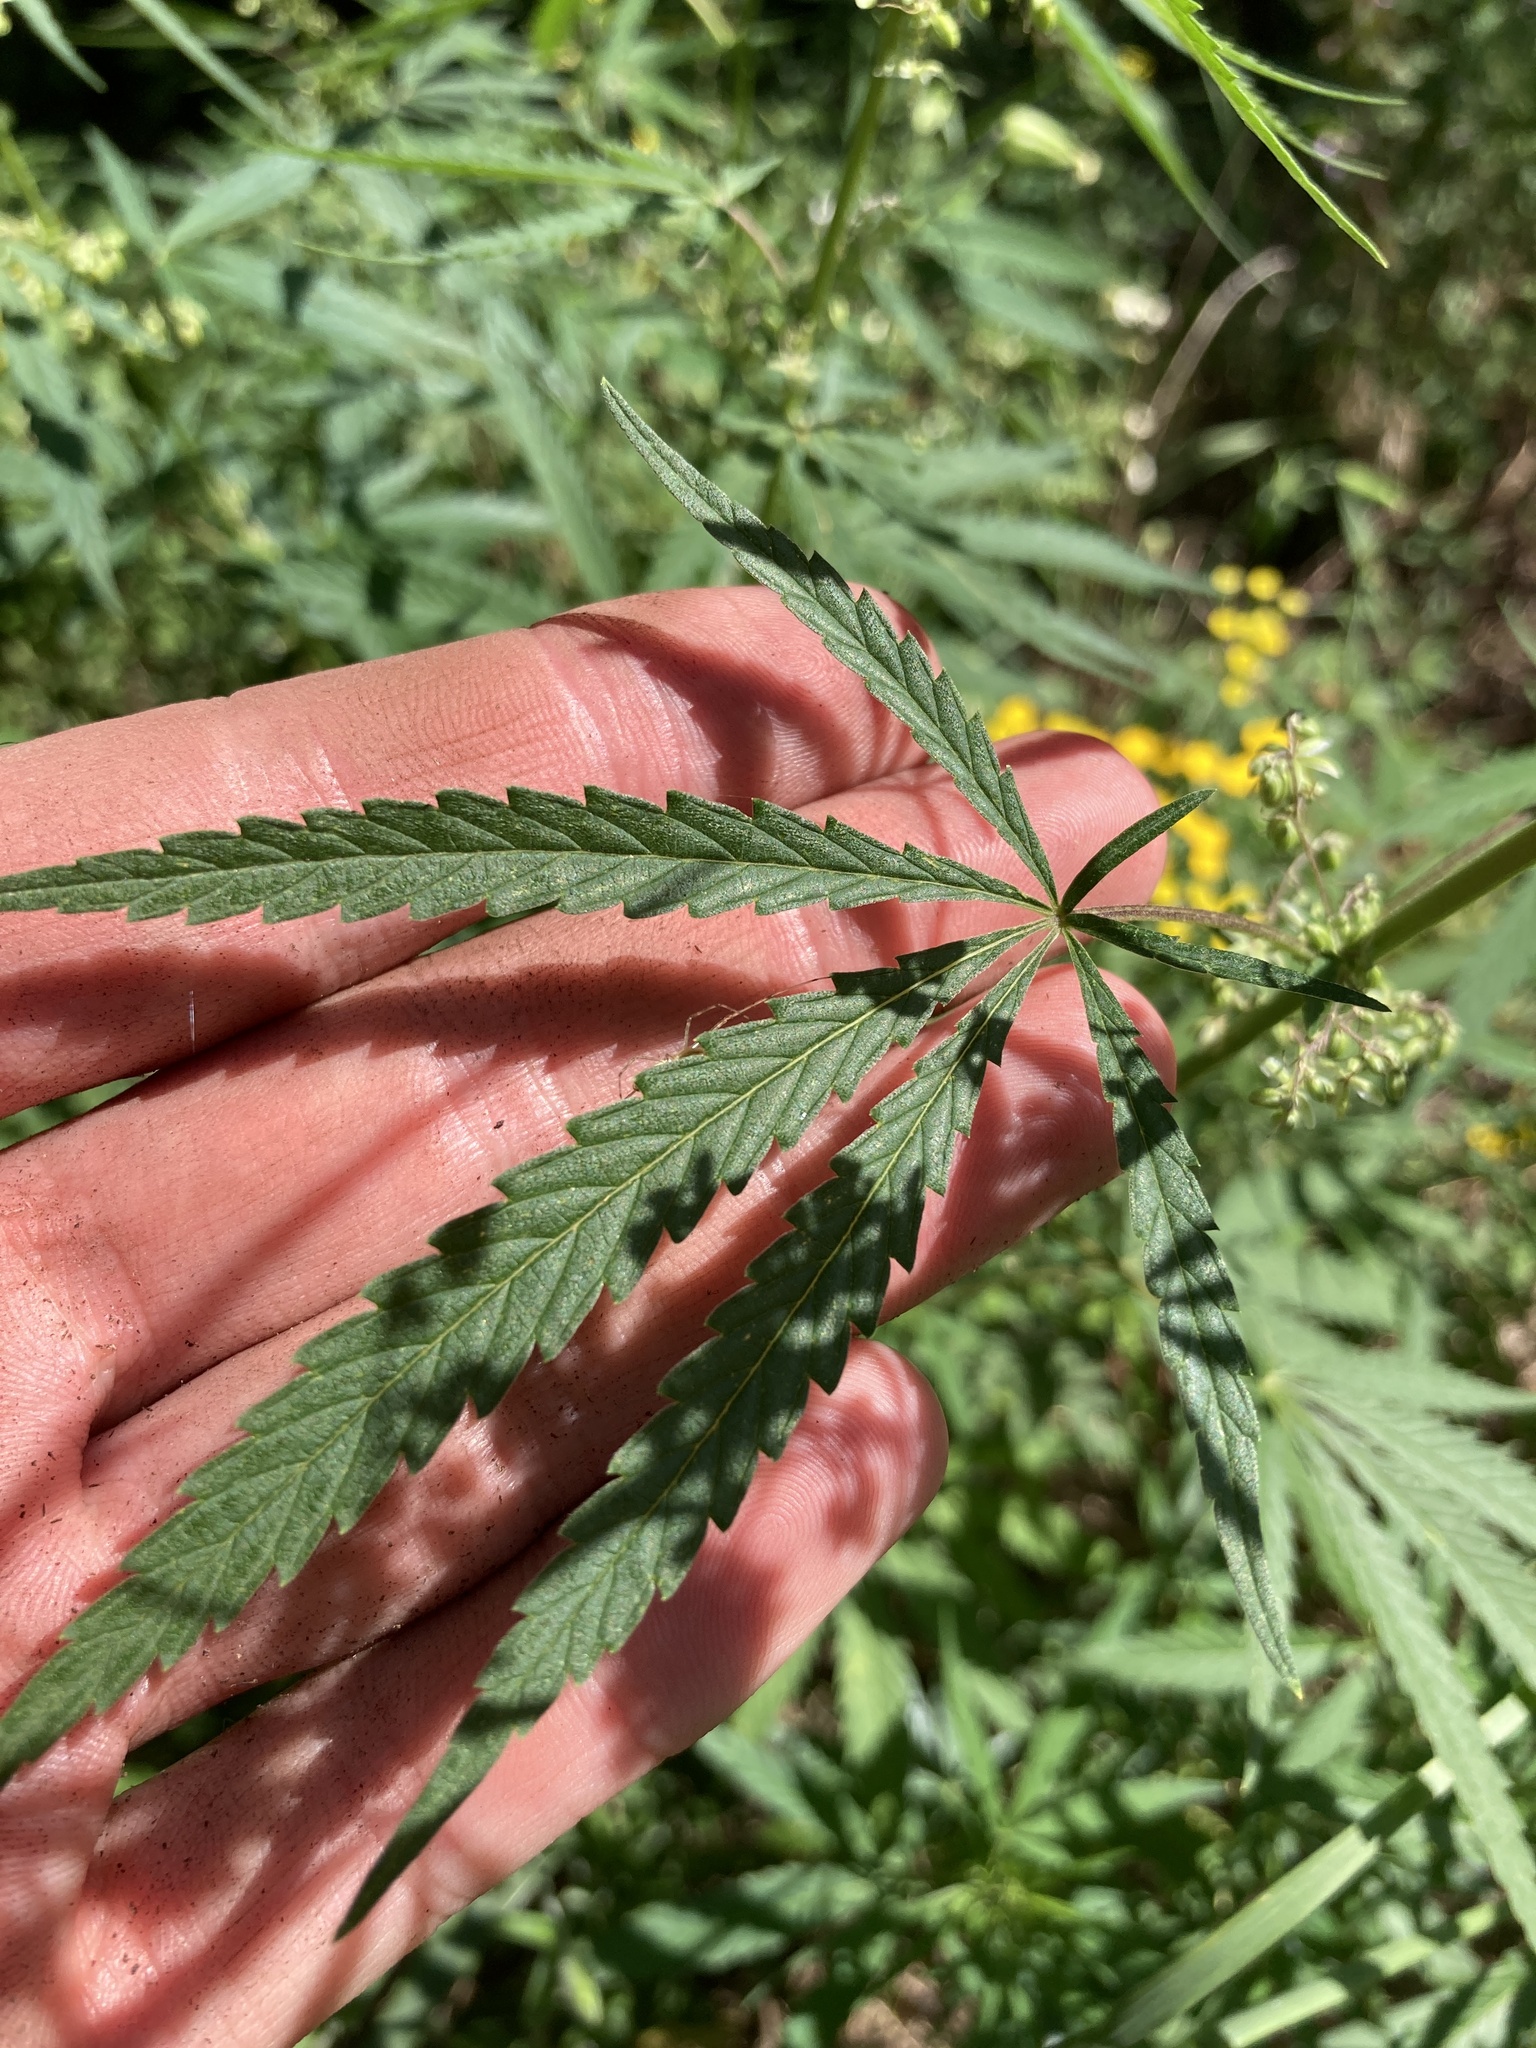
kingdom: Plantae
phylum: Tracheophyta
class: Magnoliopsida
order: Rosales
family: Cannabaceae
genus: Cannabis
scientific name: Cannabis sativa
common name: Hemp
